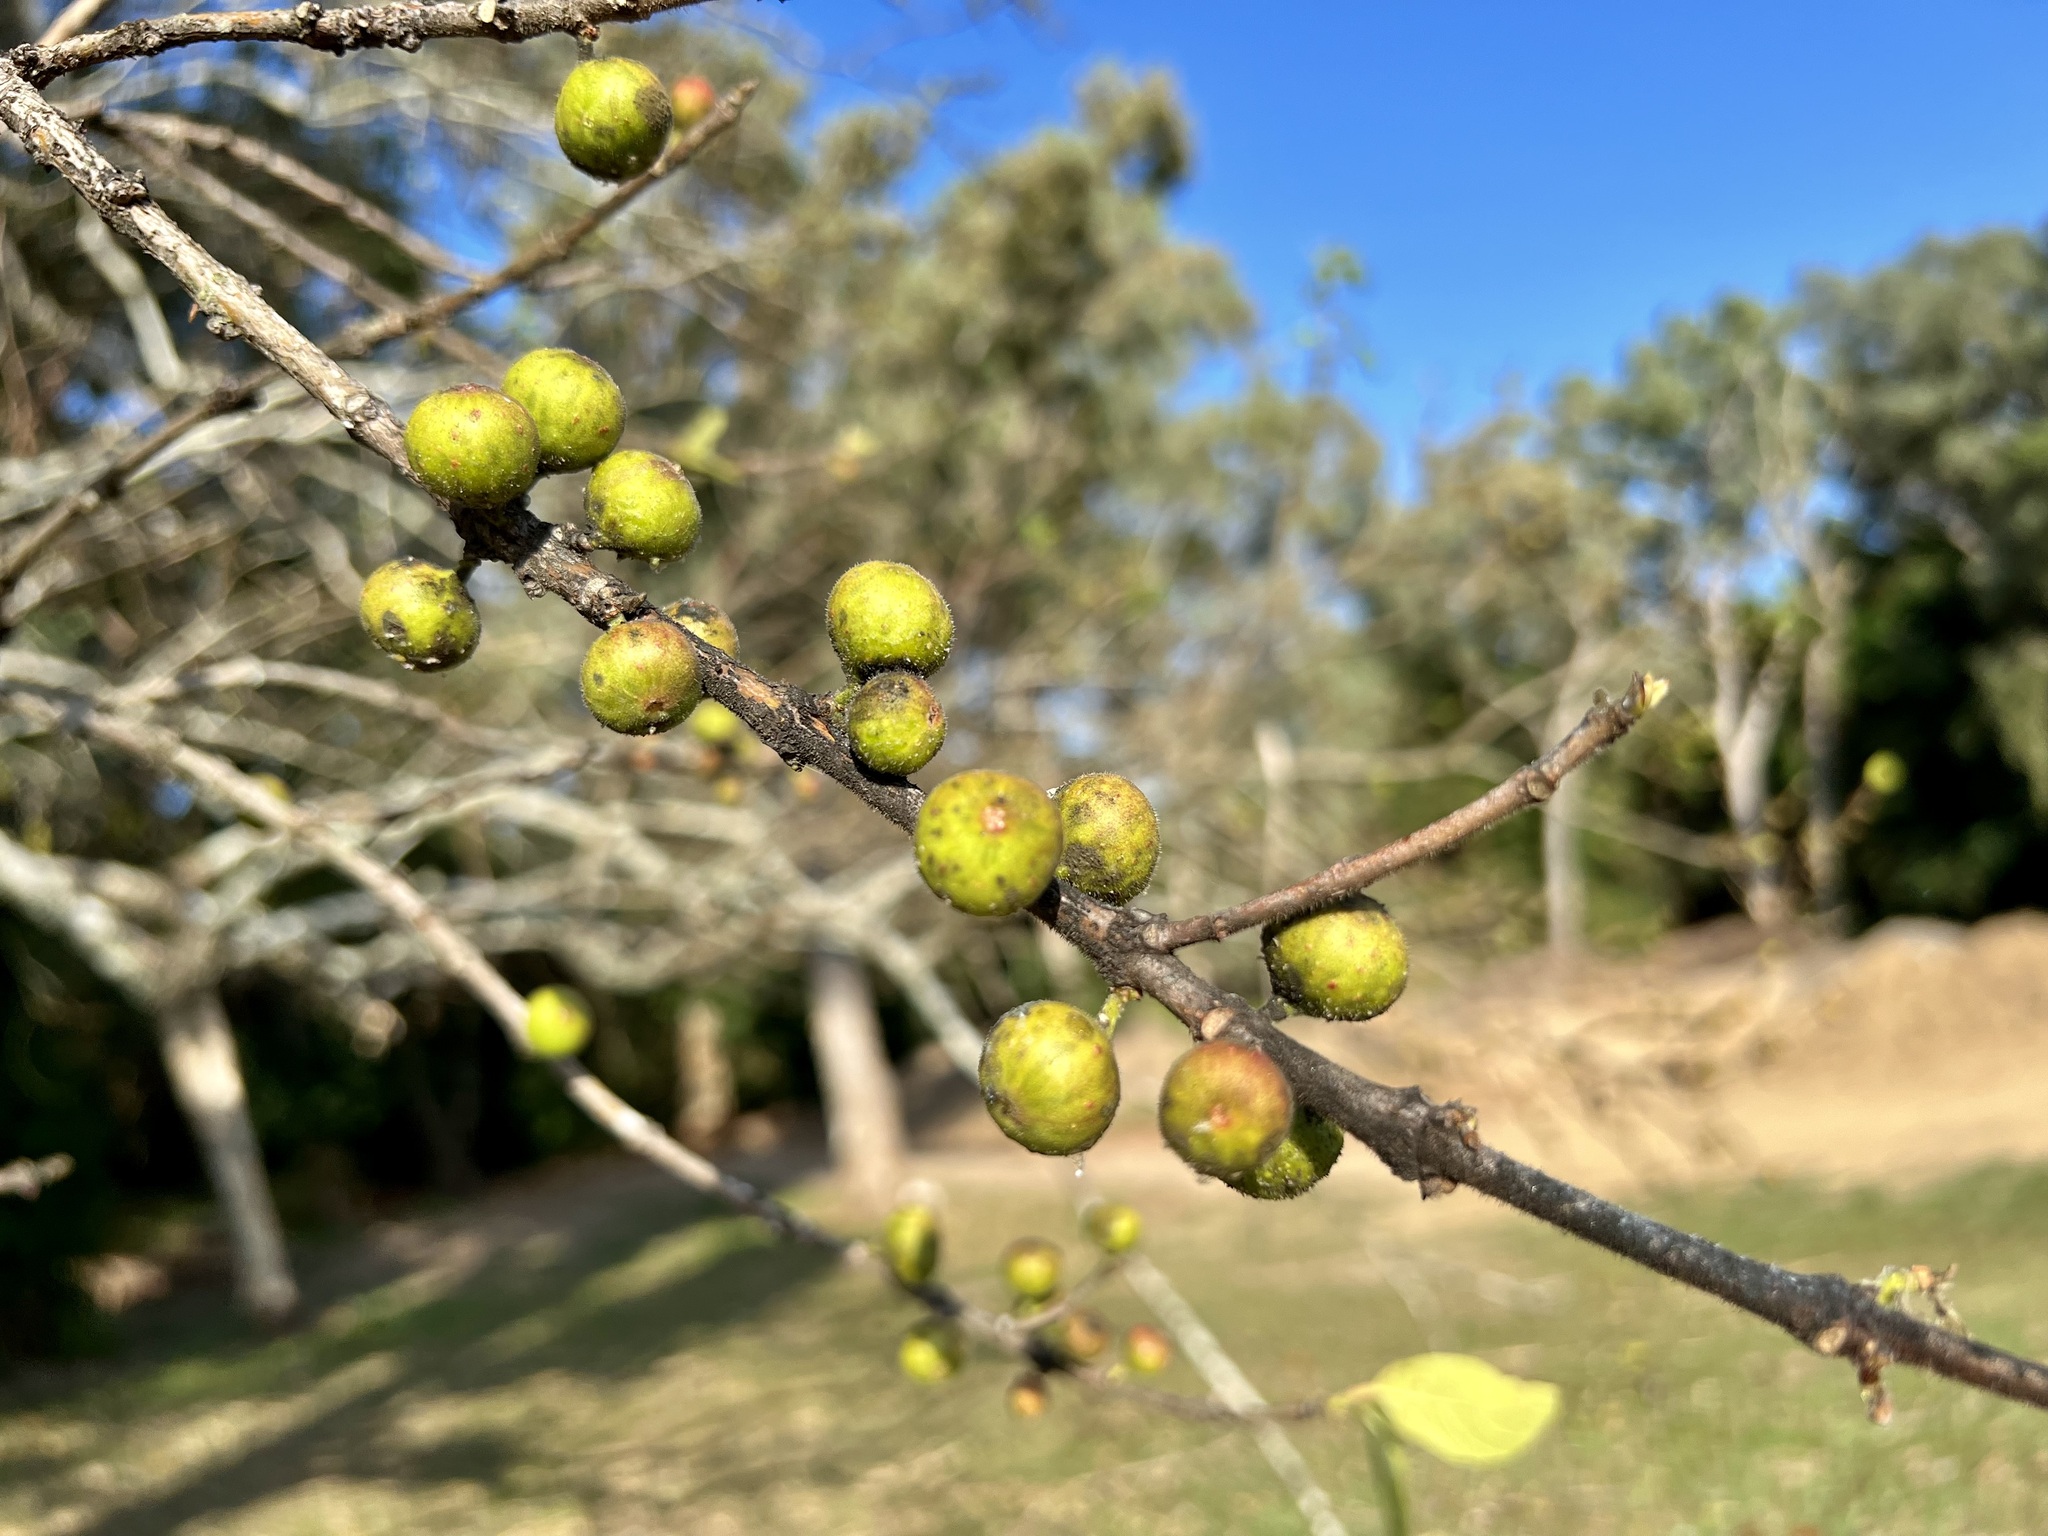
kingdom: Plantae
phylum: Tracheophyta
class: Magnoliopsida
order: Rosales
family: Moraceae
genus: Ficus
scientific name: Ficus opposita
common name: Figwood
